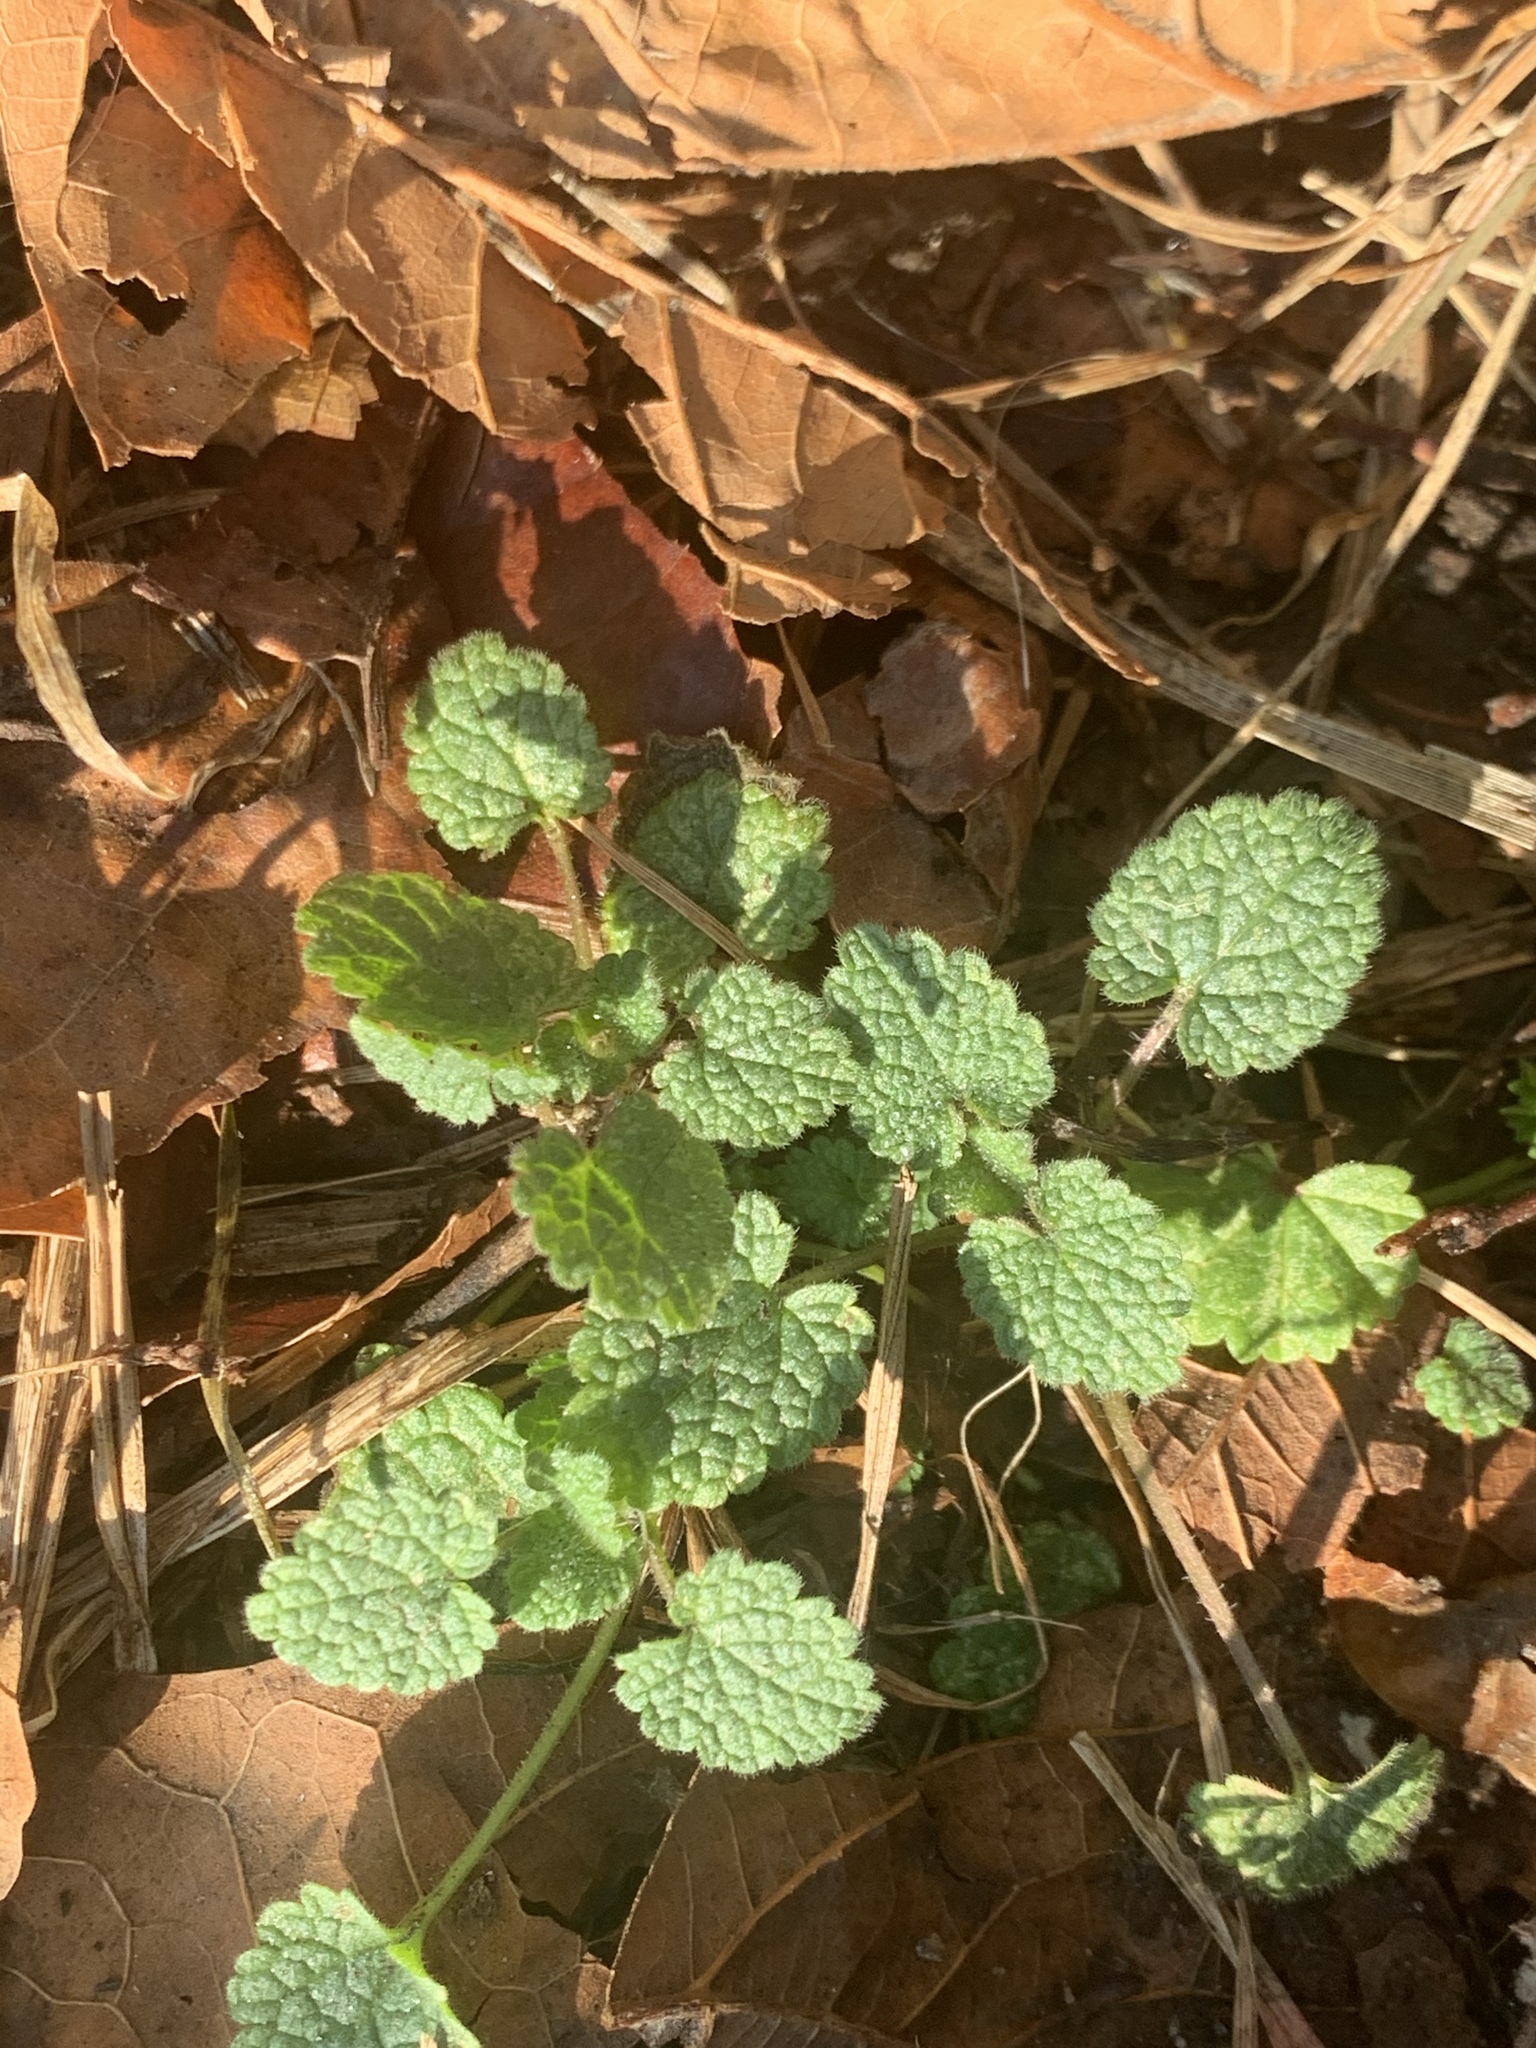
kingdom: Plantae
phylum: Tracheophyta
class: Magnoliopsida
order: Lamiales
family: Lamiaceae
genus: Lamium
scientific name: Lamium purpureum
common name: Red dead-nettle
